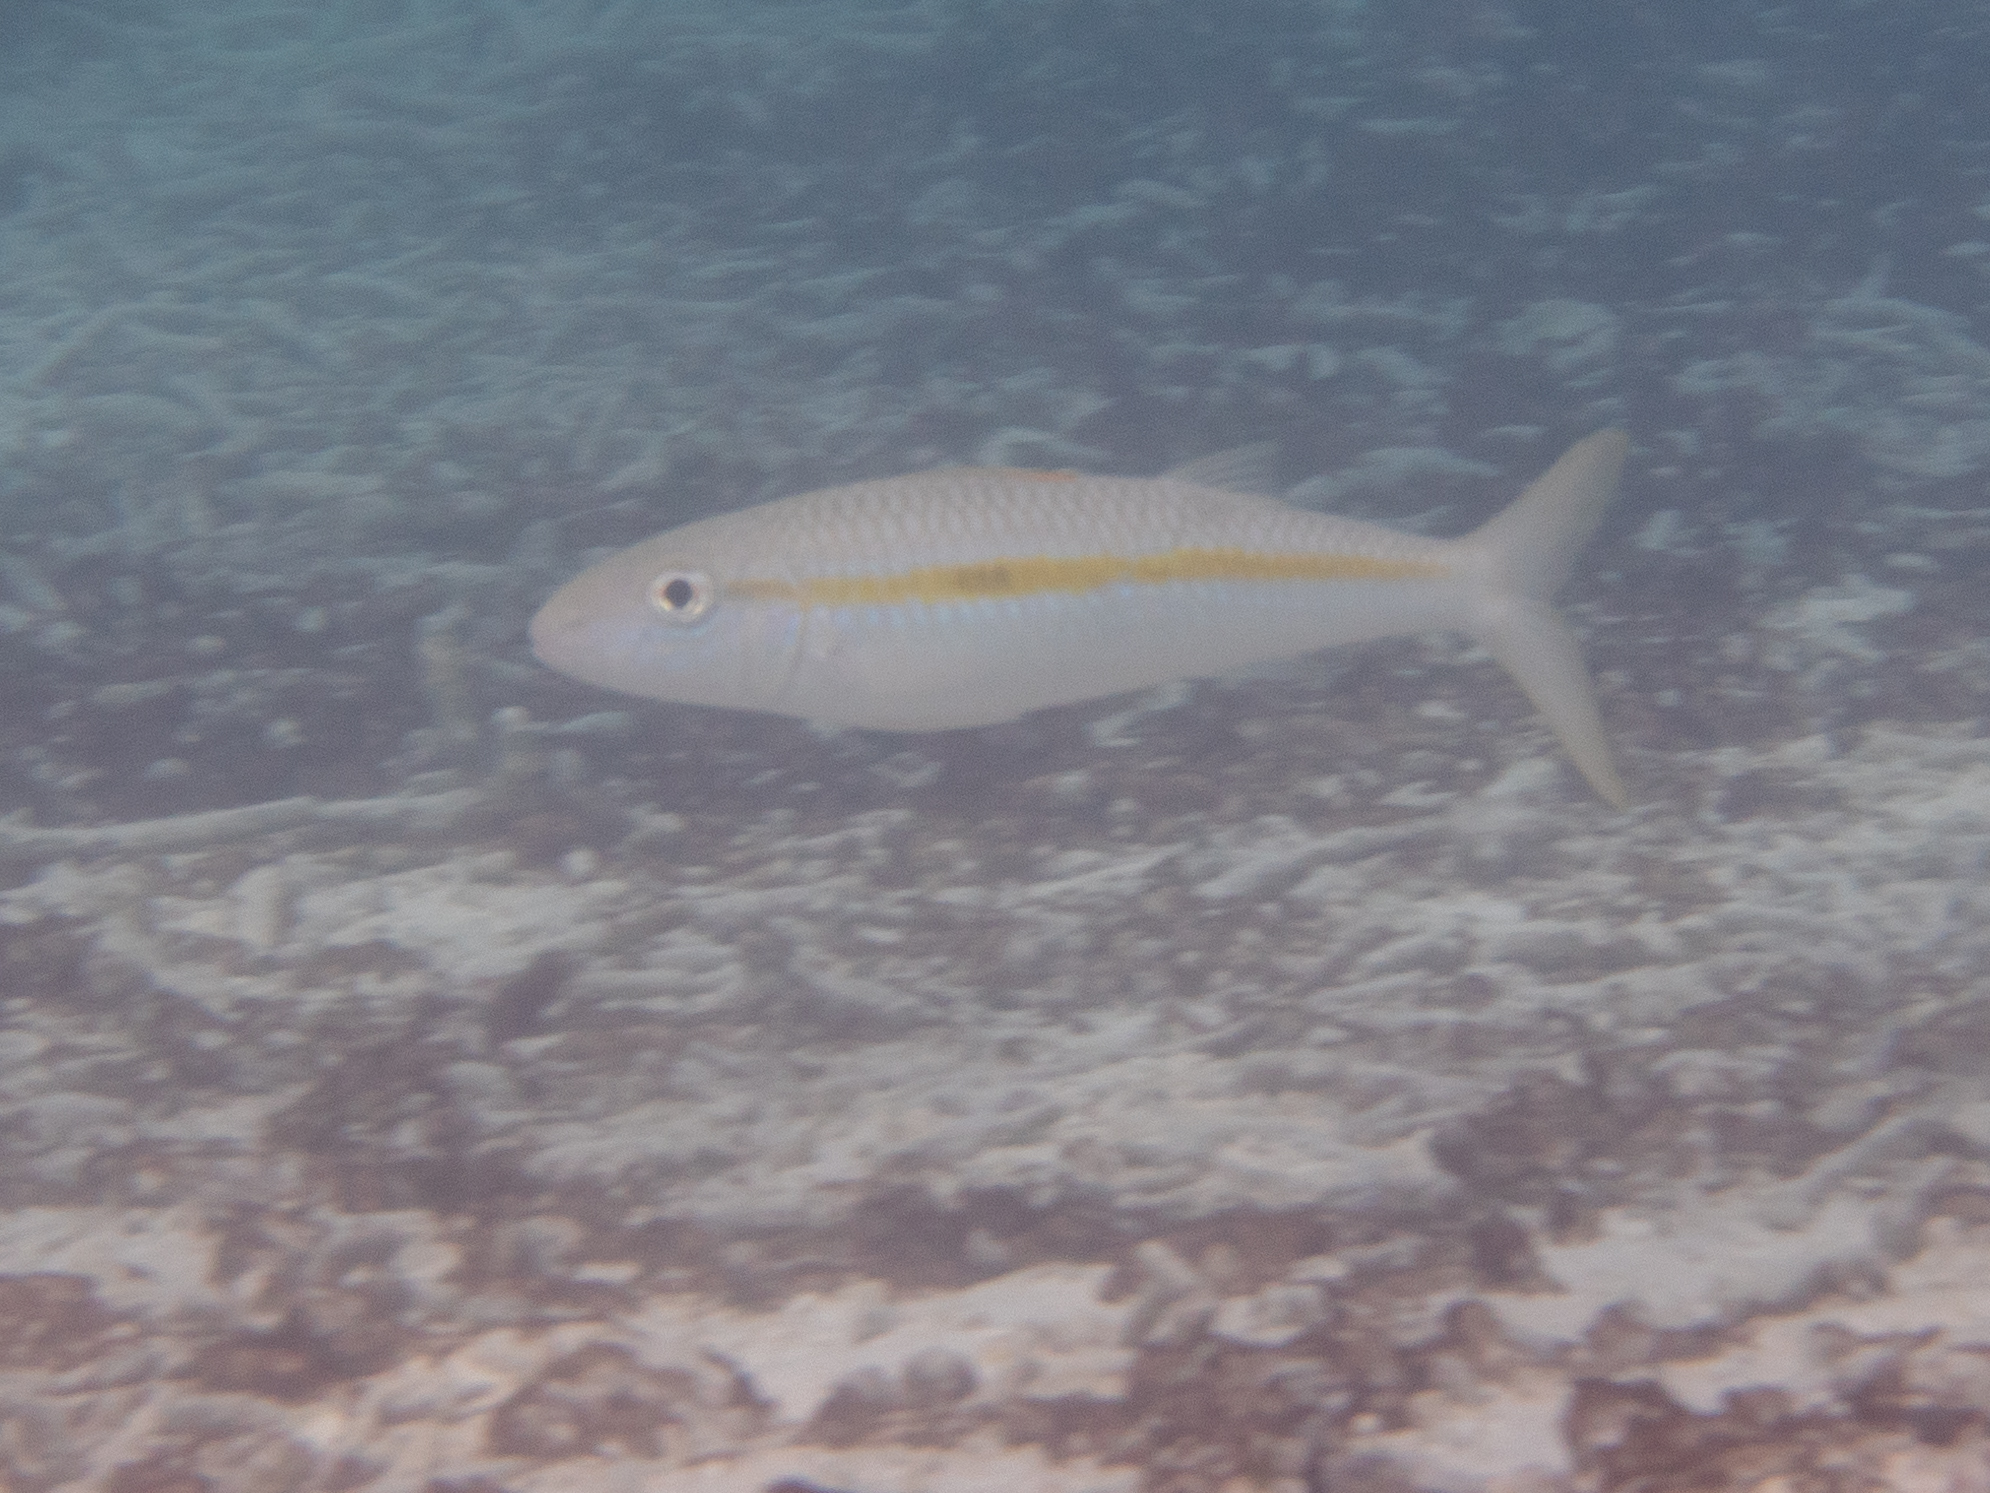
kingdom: Animalia
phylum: Chordata
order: Perciformes
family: Mullidae
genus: Mulloidichthys
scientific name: Mulloidichthys flavolineatus
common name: Yellowstripe goatfish
